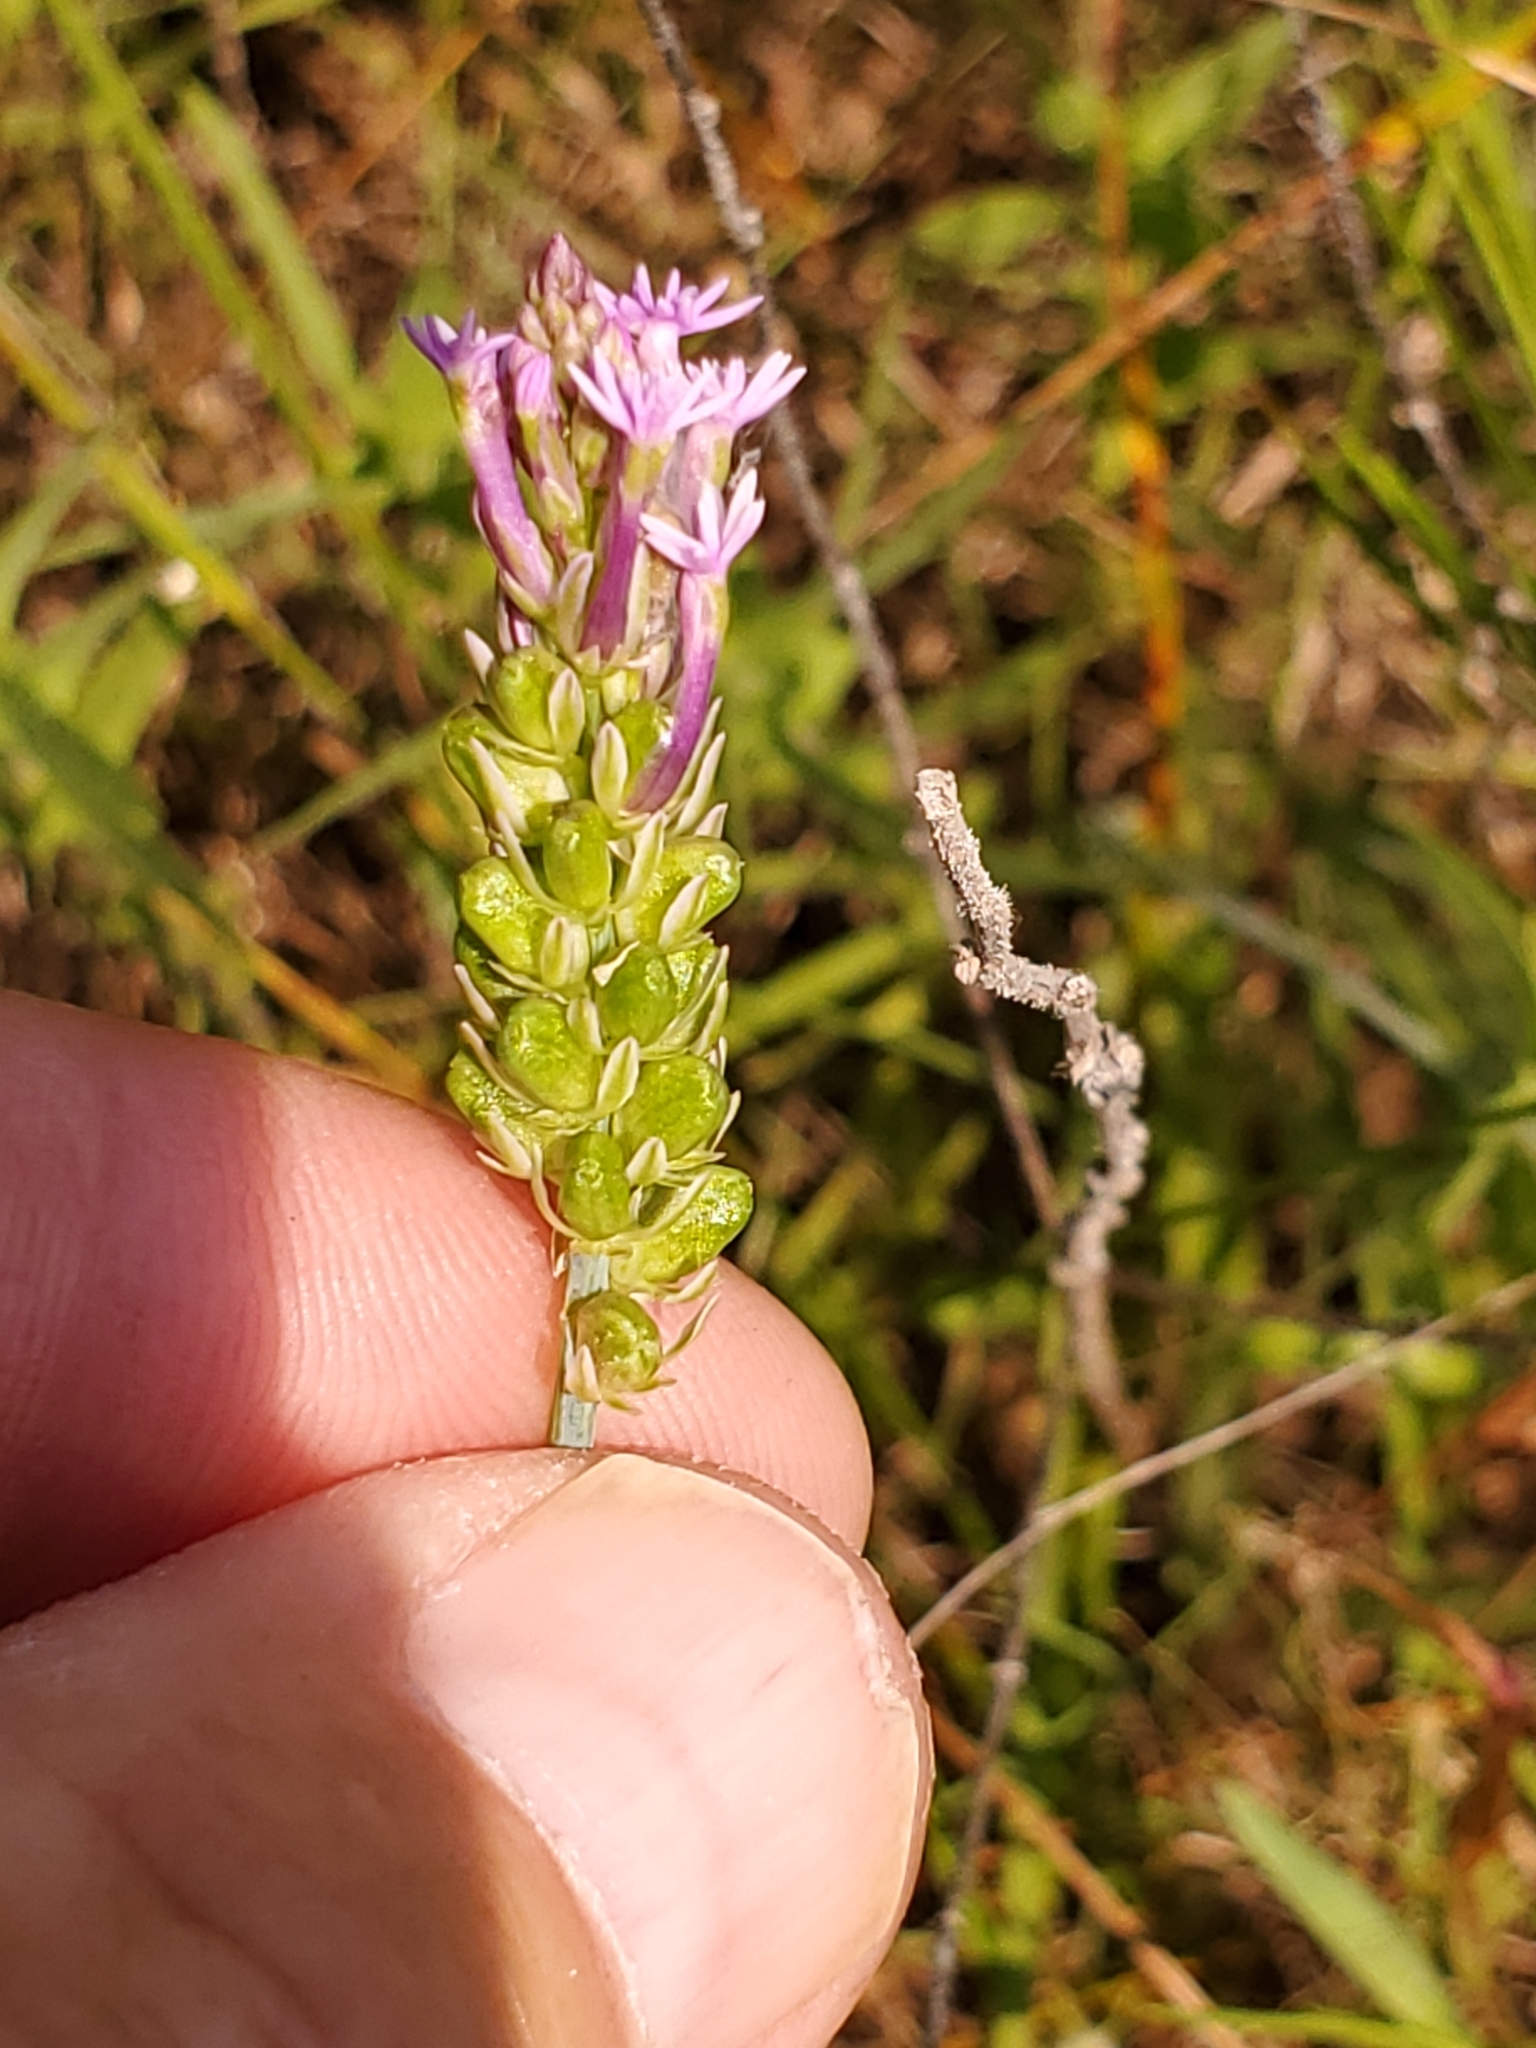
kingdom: Plantae
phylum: Tracheophyta
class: Magnoliopsida
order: Fabales
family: Polygalaceae
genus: Polygala
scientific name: Polygala incarnata
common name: Pink milkwort
